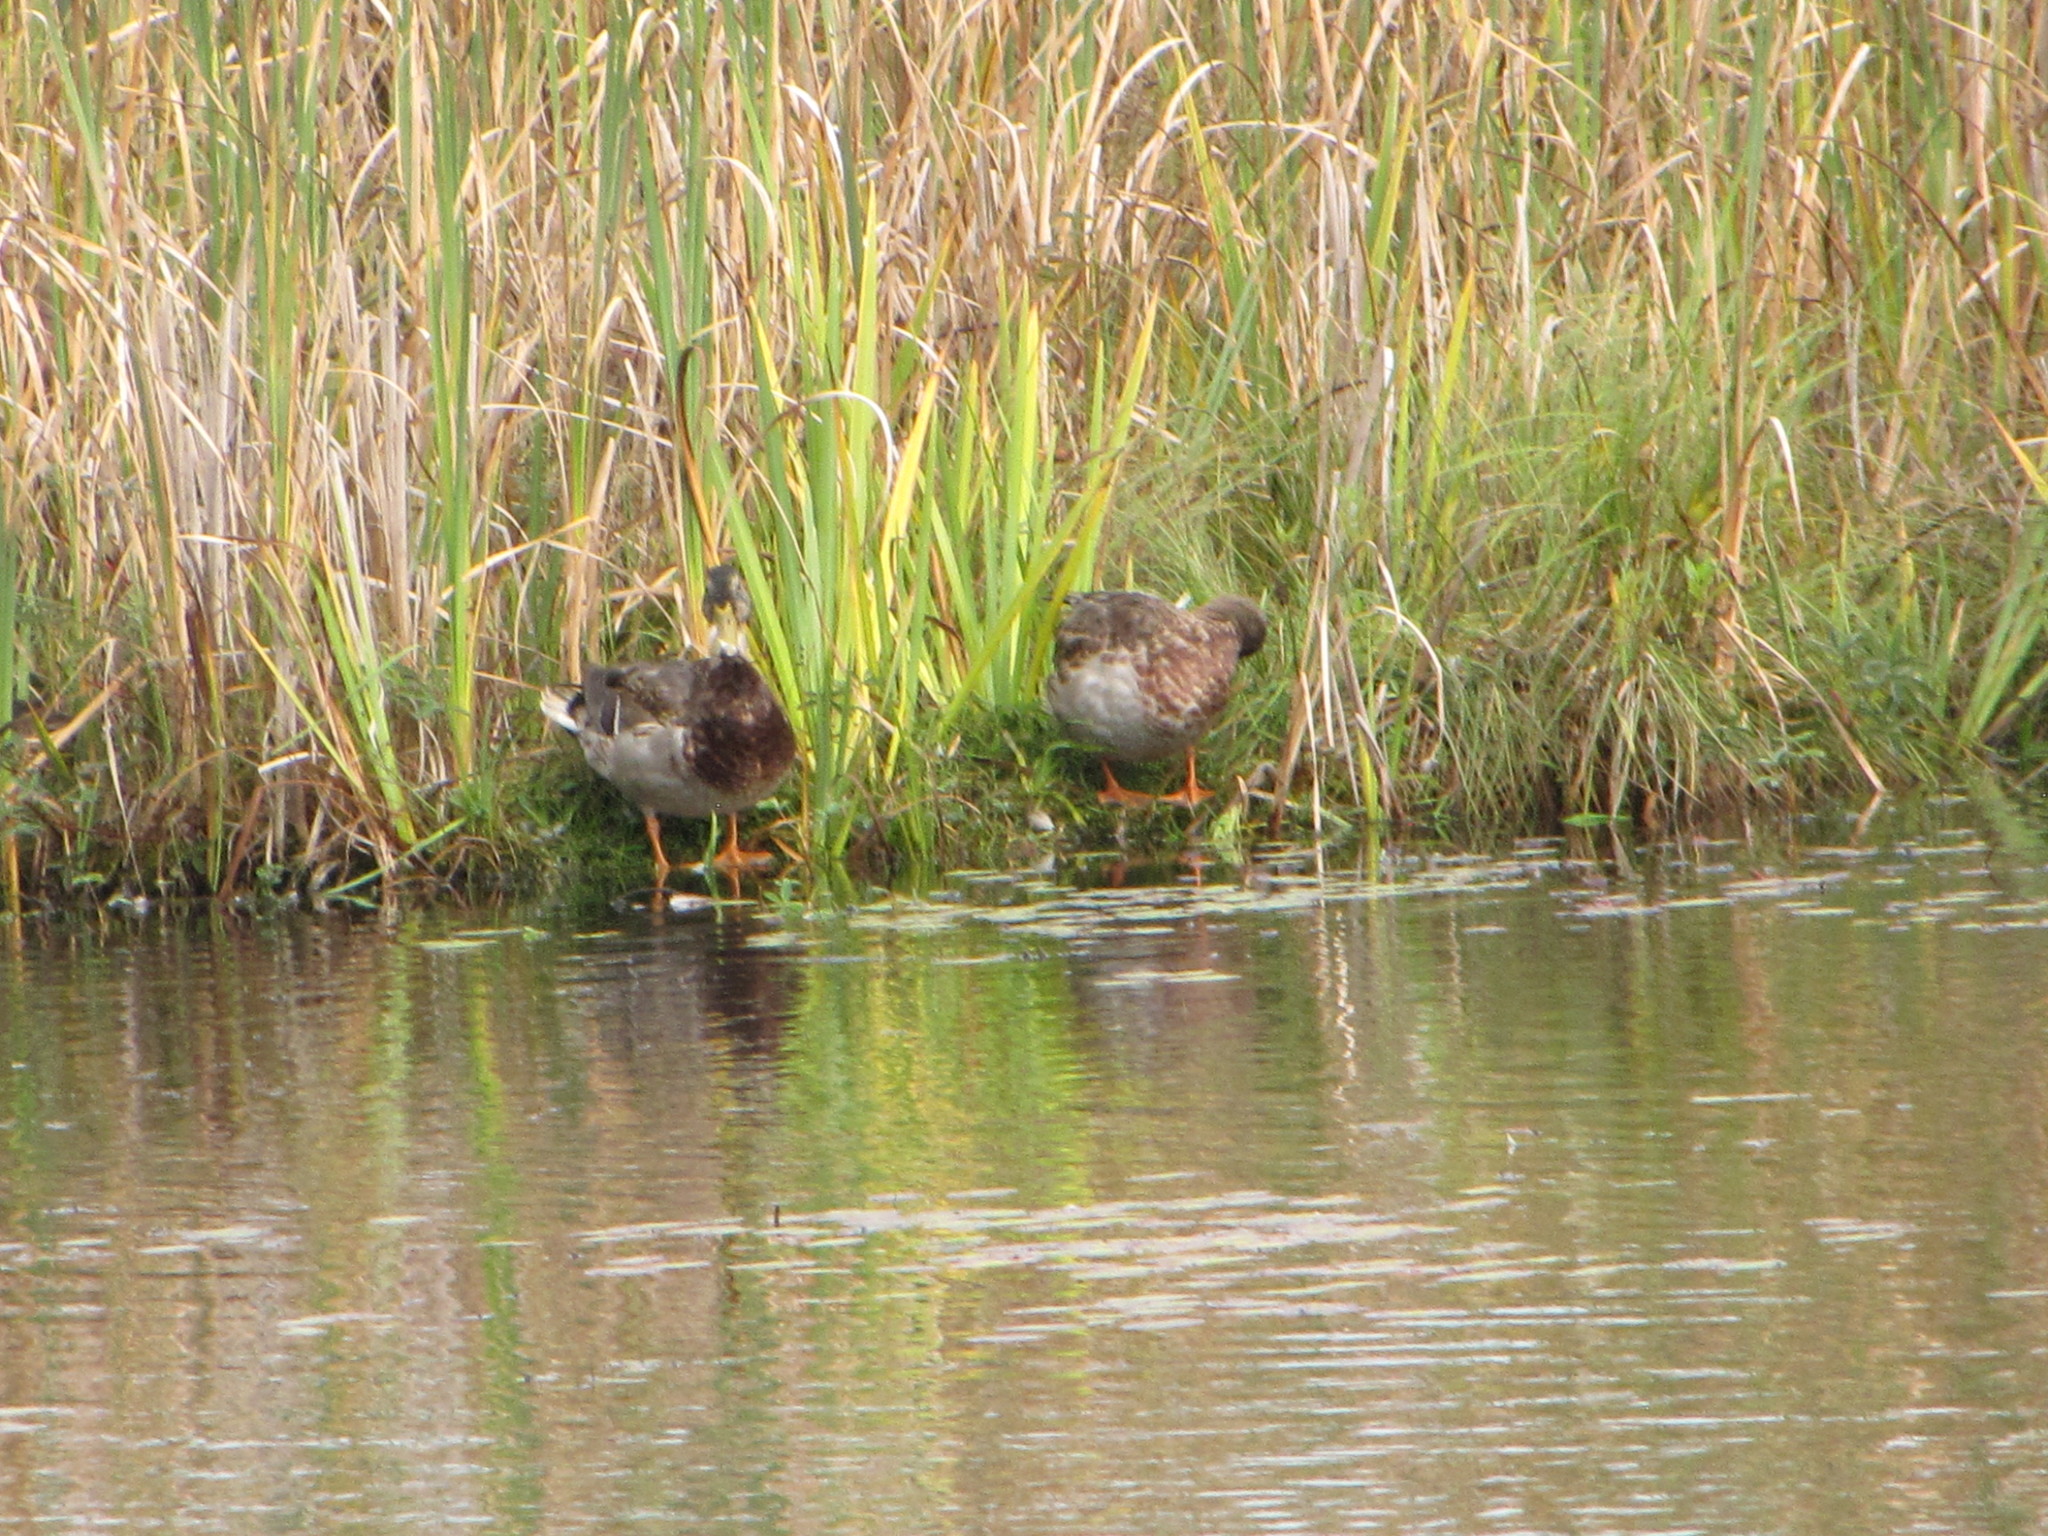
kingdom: Animalia
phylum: Chordata
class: Aves
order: Anseriformes
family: Anatidae
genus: Anas
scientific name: Anas platyrhynchos
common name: Mallard
